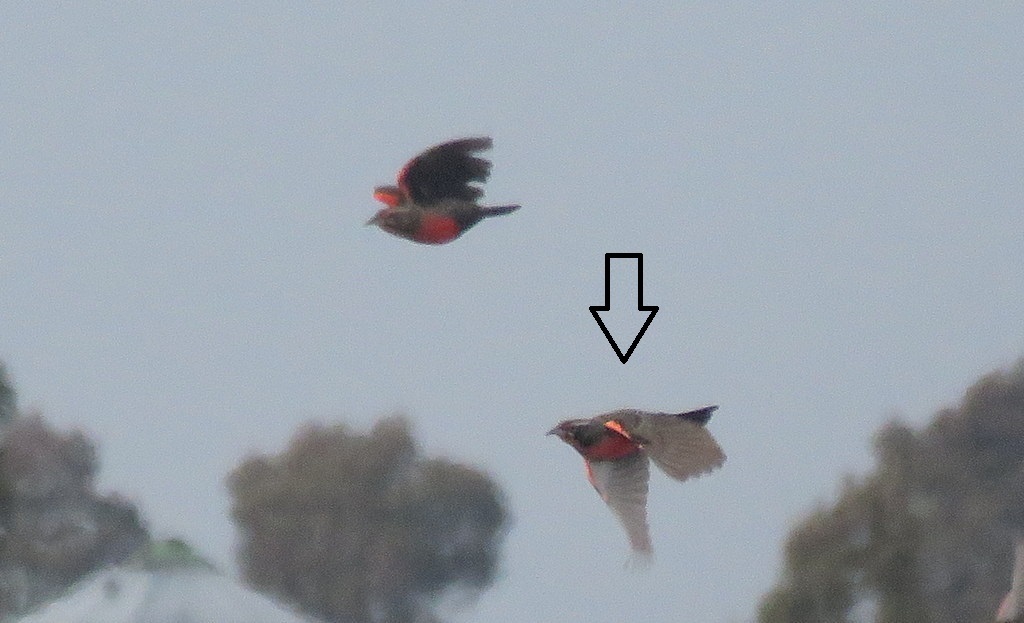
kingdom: Animalia
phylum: Chordata
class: Aves
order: Passeriformes
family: Icteridae
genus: Sturnella
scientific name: Sturnella loyca
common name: Long-tailed meadowlark
